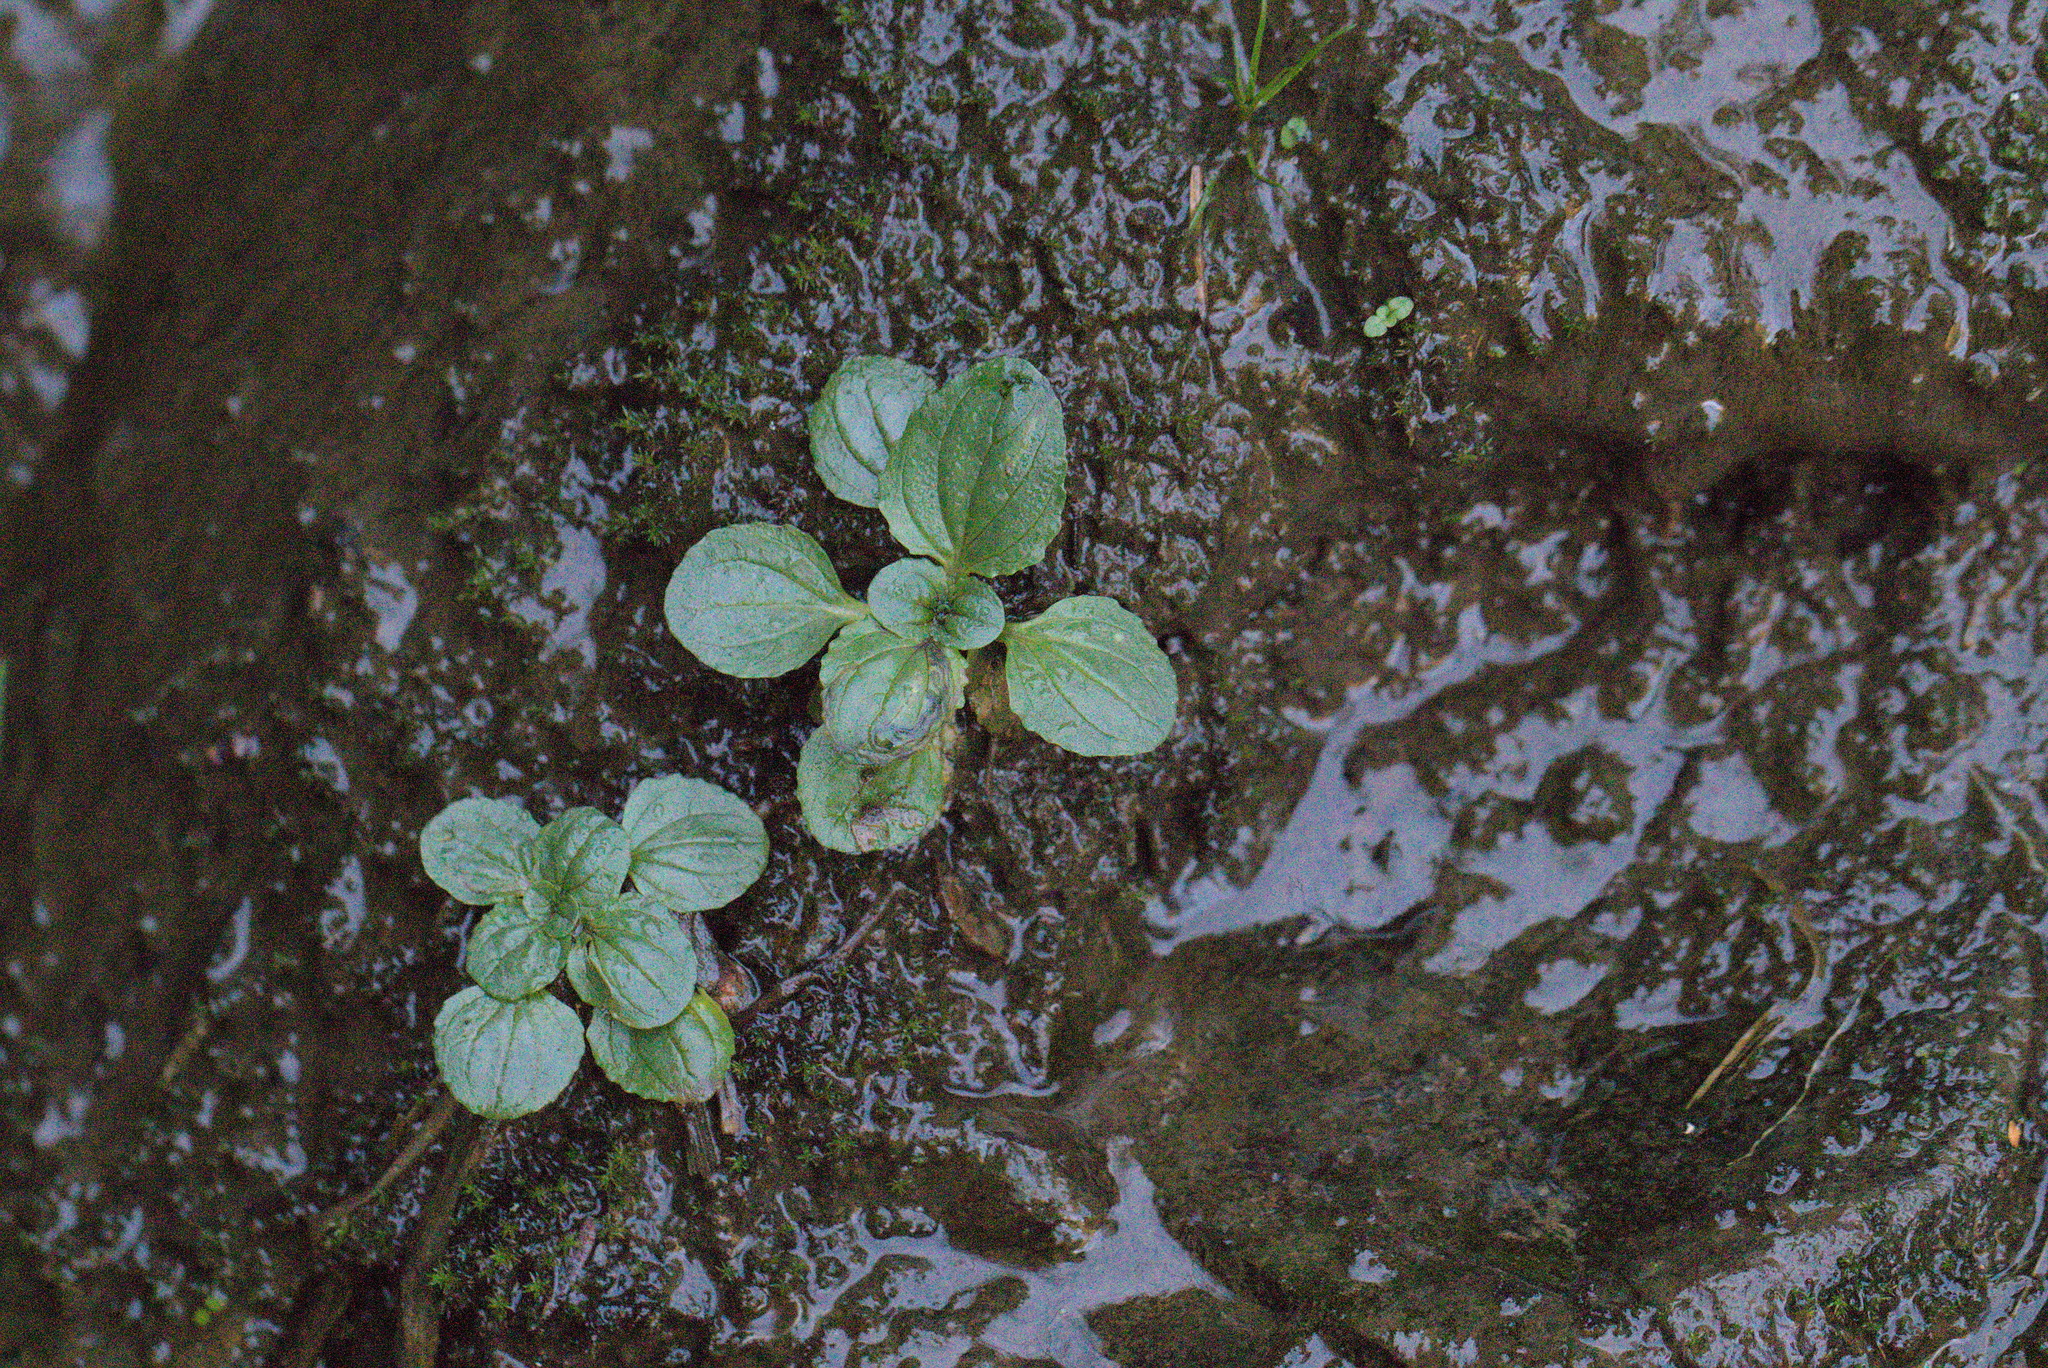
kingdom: Plantae
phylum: Tracheophyta
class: Magnoliopsida
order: Lamiales
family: Phrymaceae
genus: Erythranthe
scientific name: Erythranthe grandis
